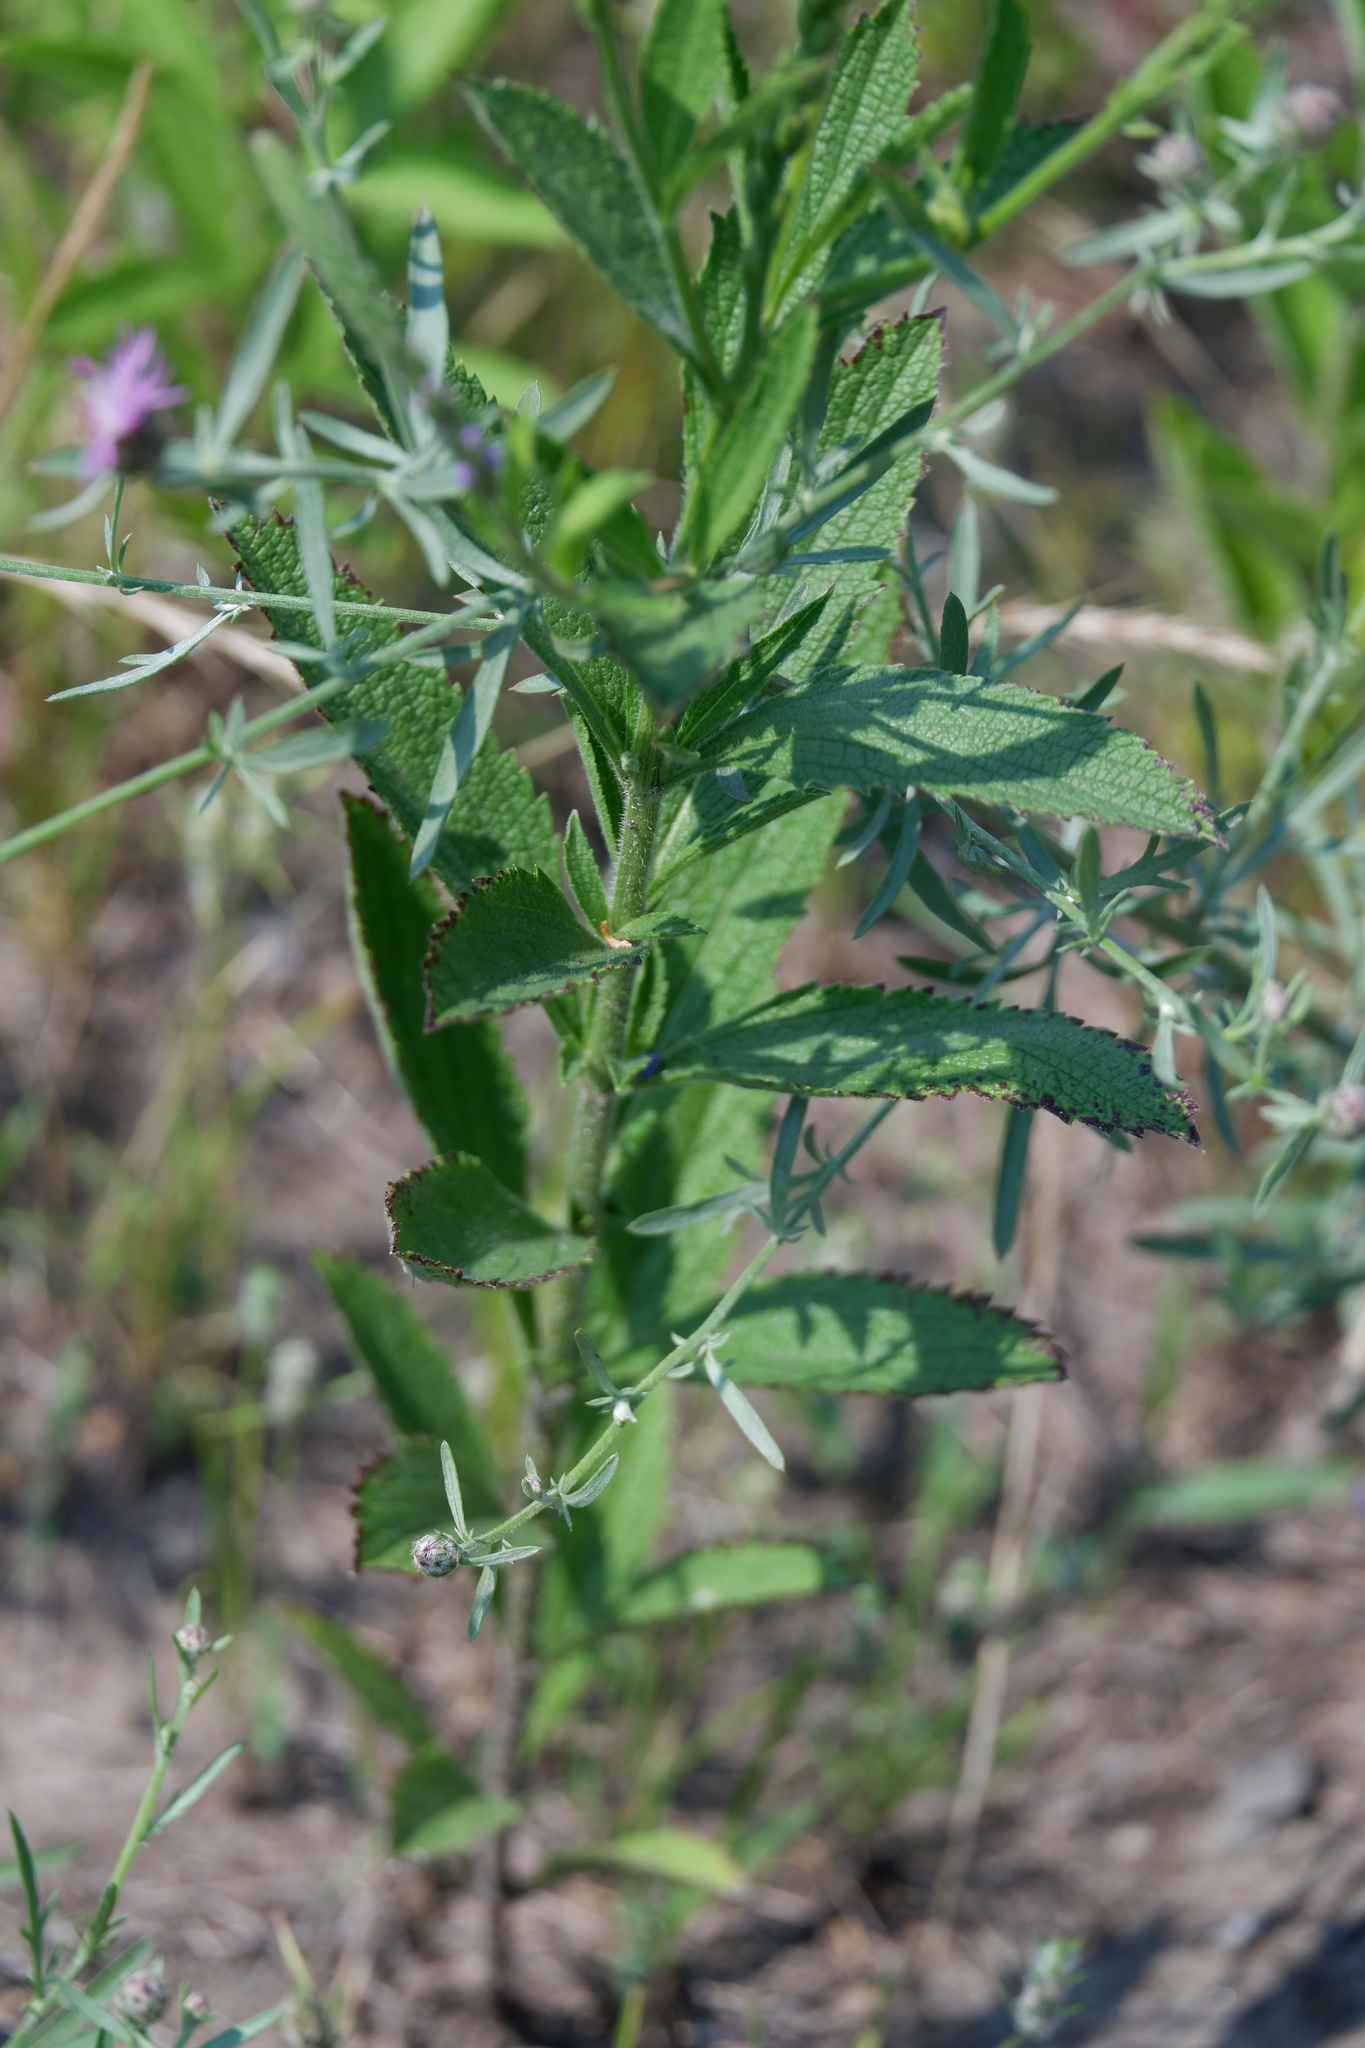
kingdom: Plantae
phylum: Tracheophyta
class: Magnoliopsida
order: Lamiales
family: Verbenaceae
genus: Verbena
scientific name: Verbena stricta
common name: Hoary vervain
